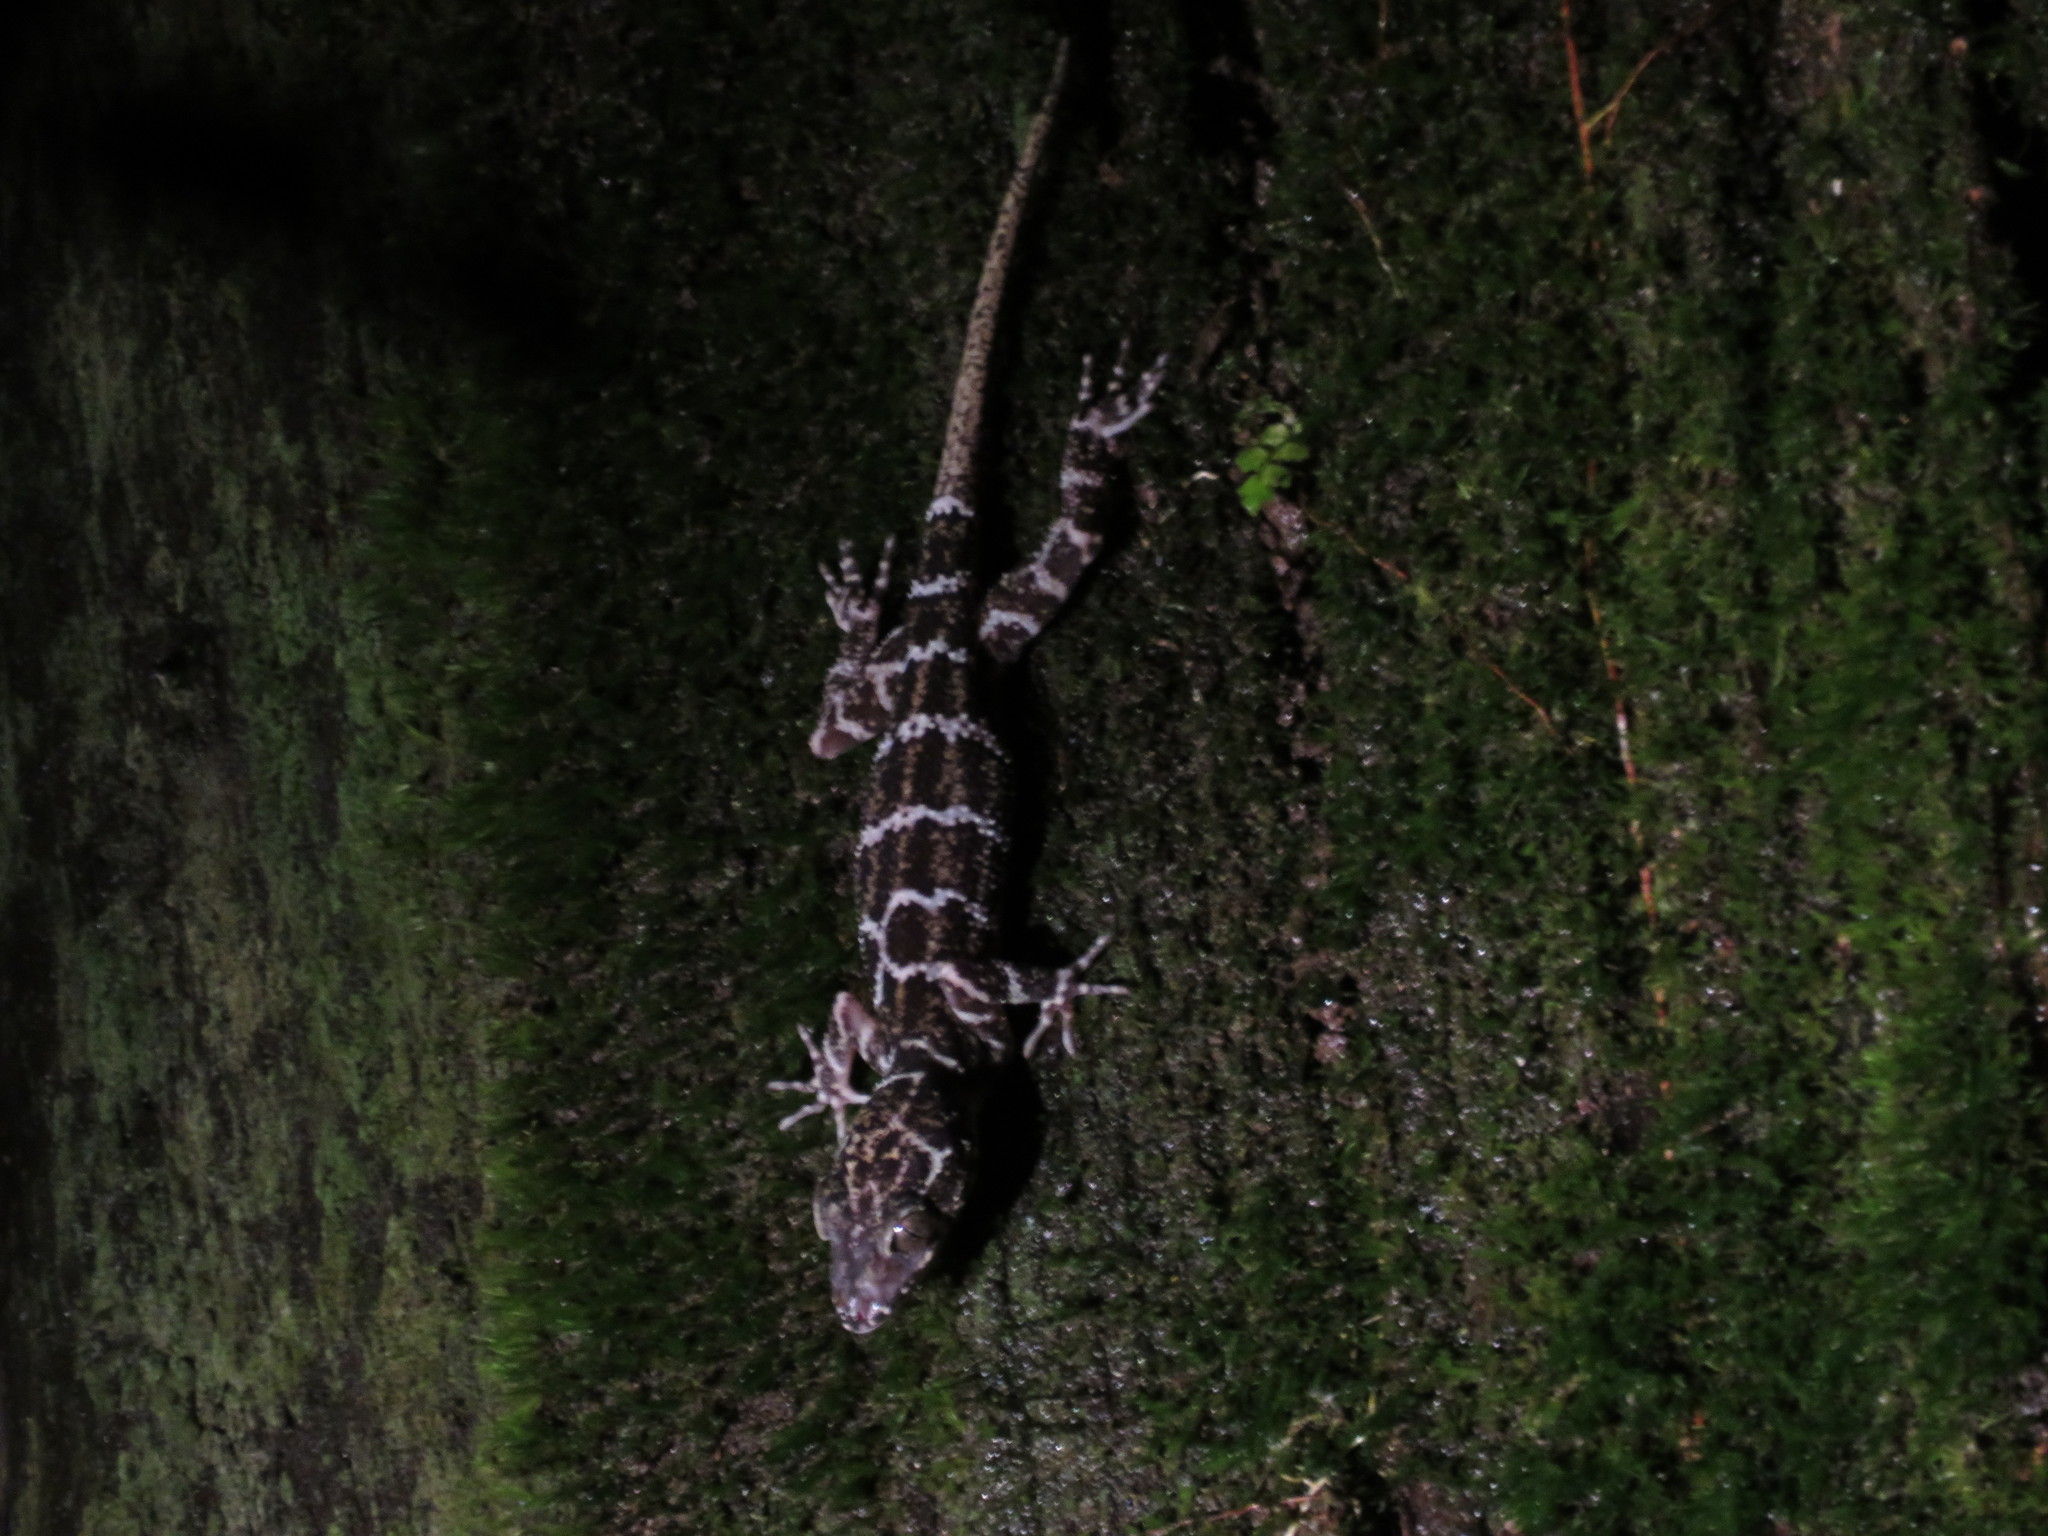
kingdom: Animalia
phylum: Chordata
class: Squamata
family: Gekkonidae
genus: Cyrtodactylus
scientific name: Cyrtodactylus consobrinus
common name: Banded forest gecko
